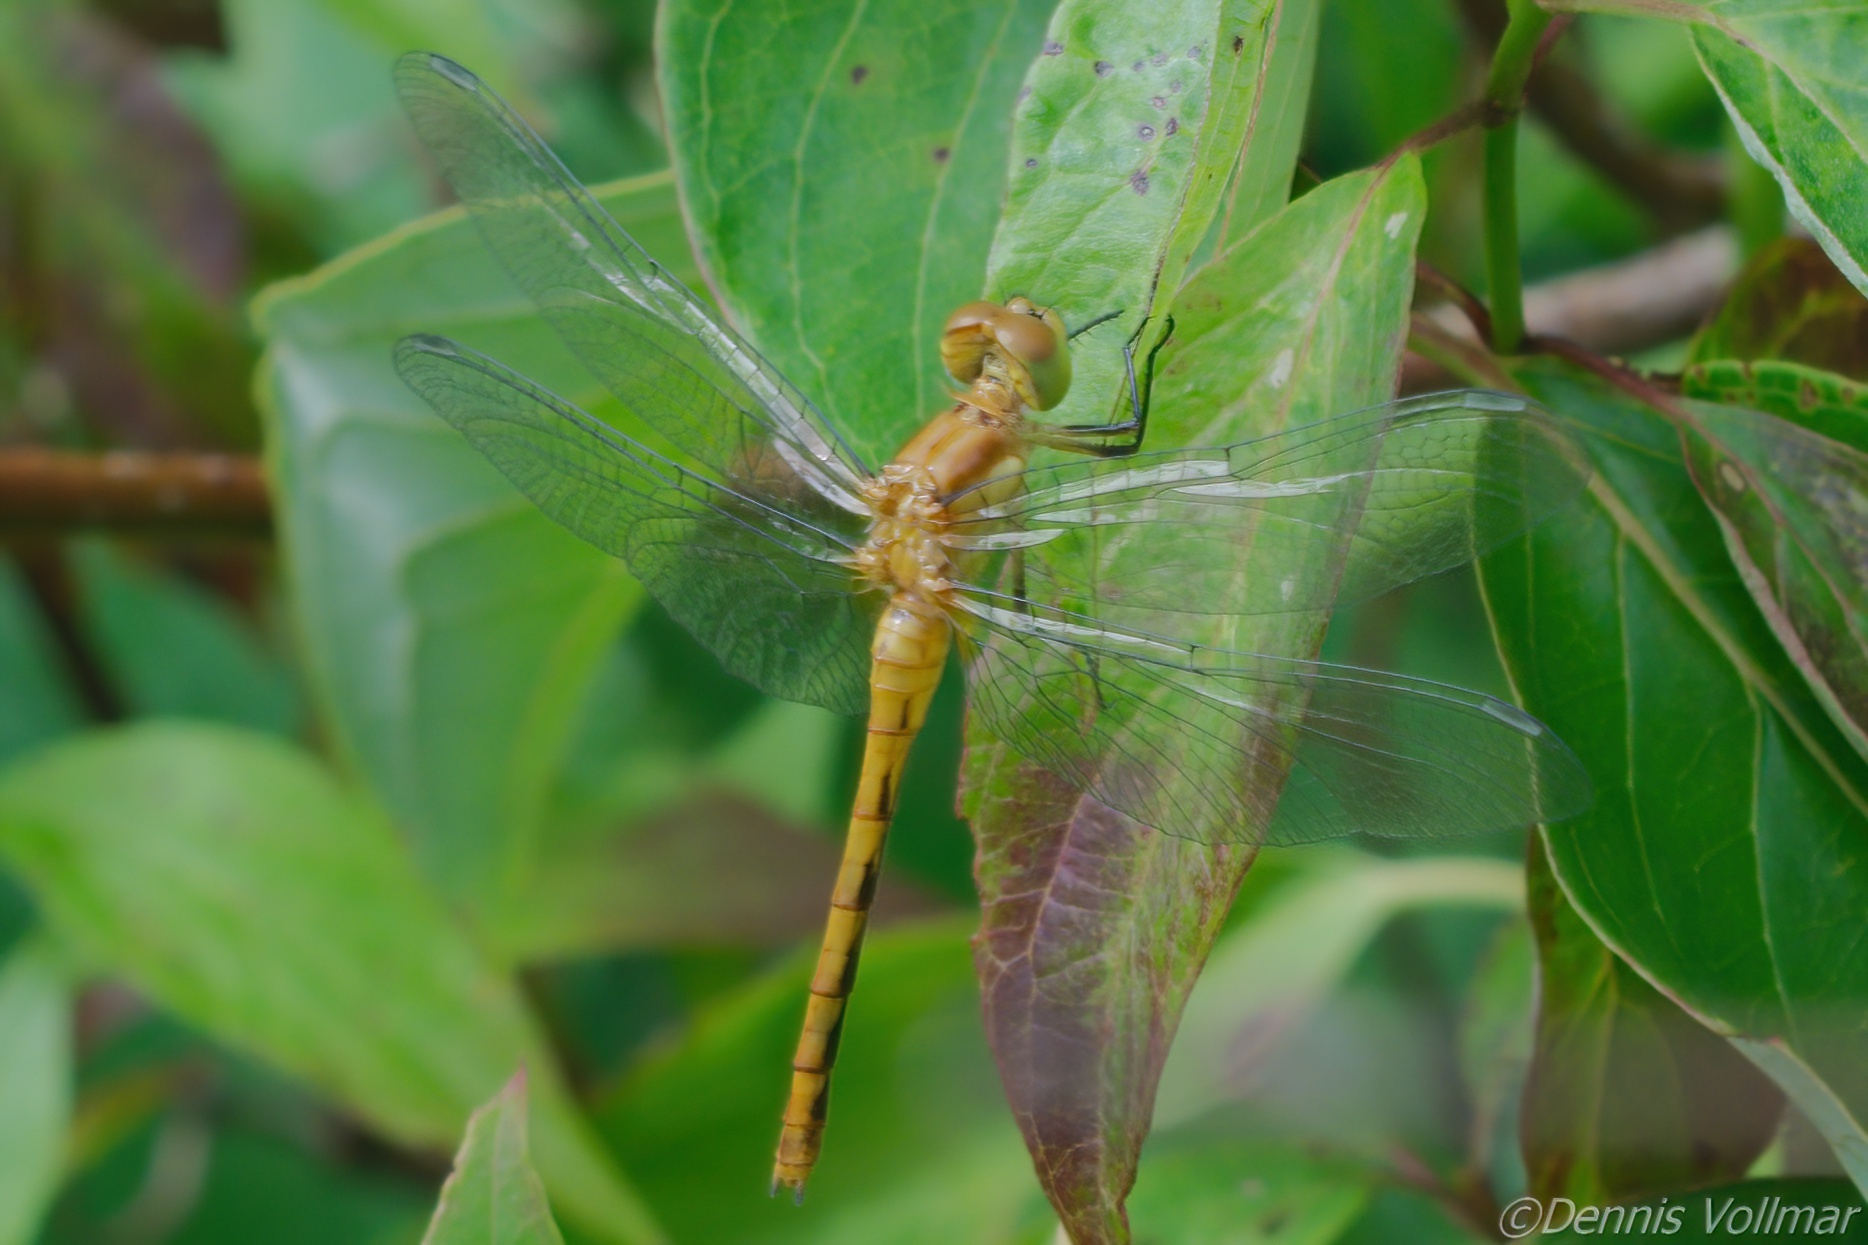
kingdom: Animalia
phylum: Arthropoda
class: Insecta
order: Odonata
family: Libellulidae
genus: Sympetrum
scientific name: Sympetrum
